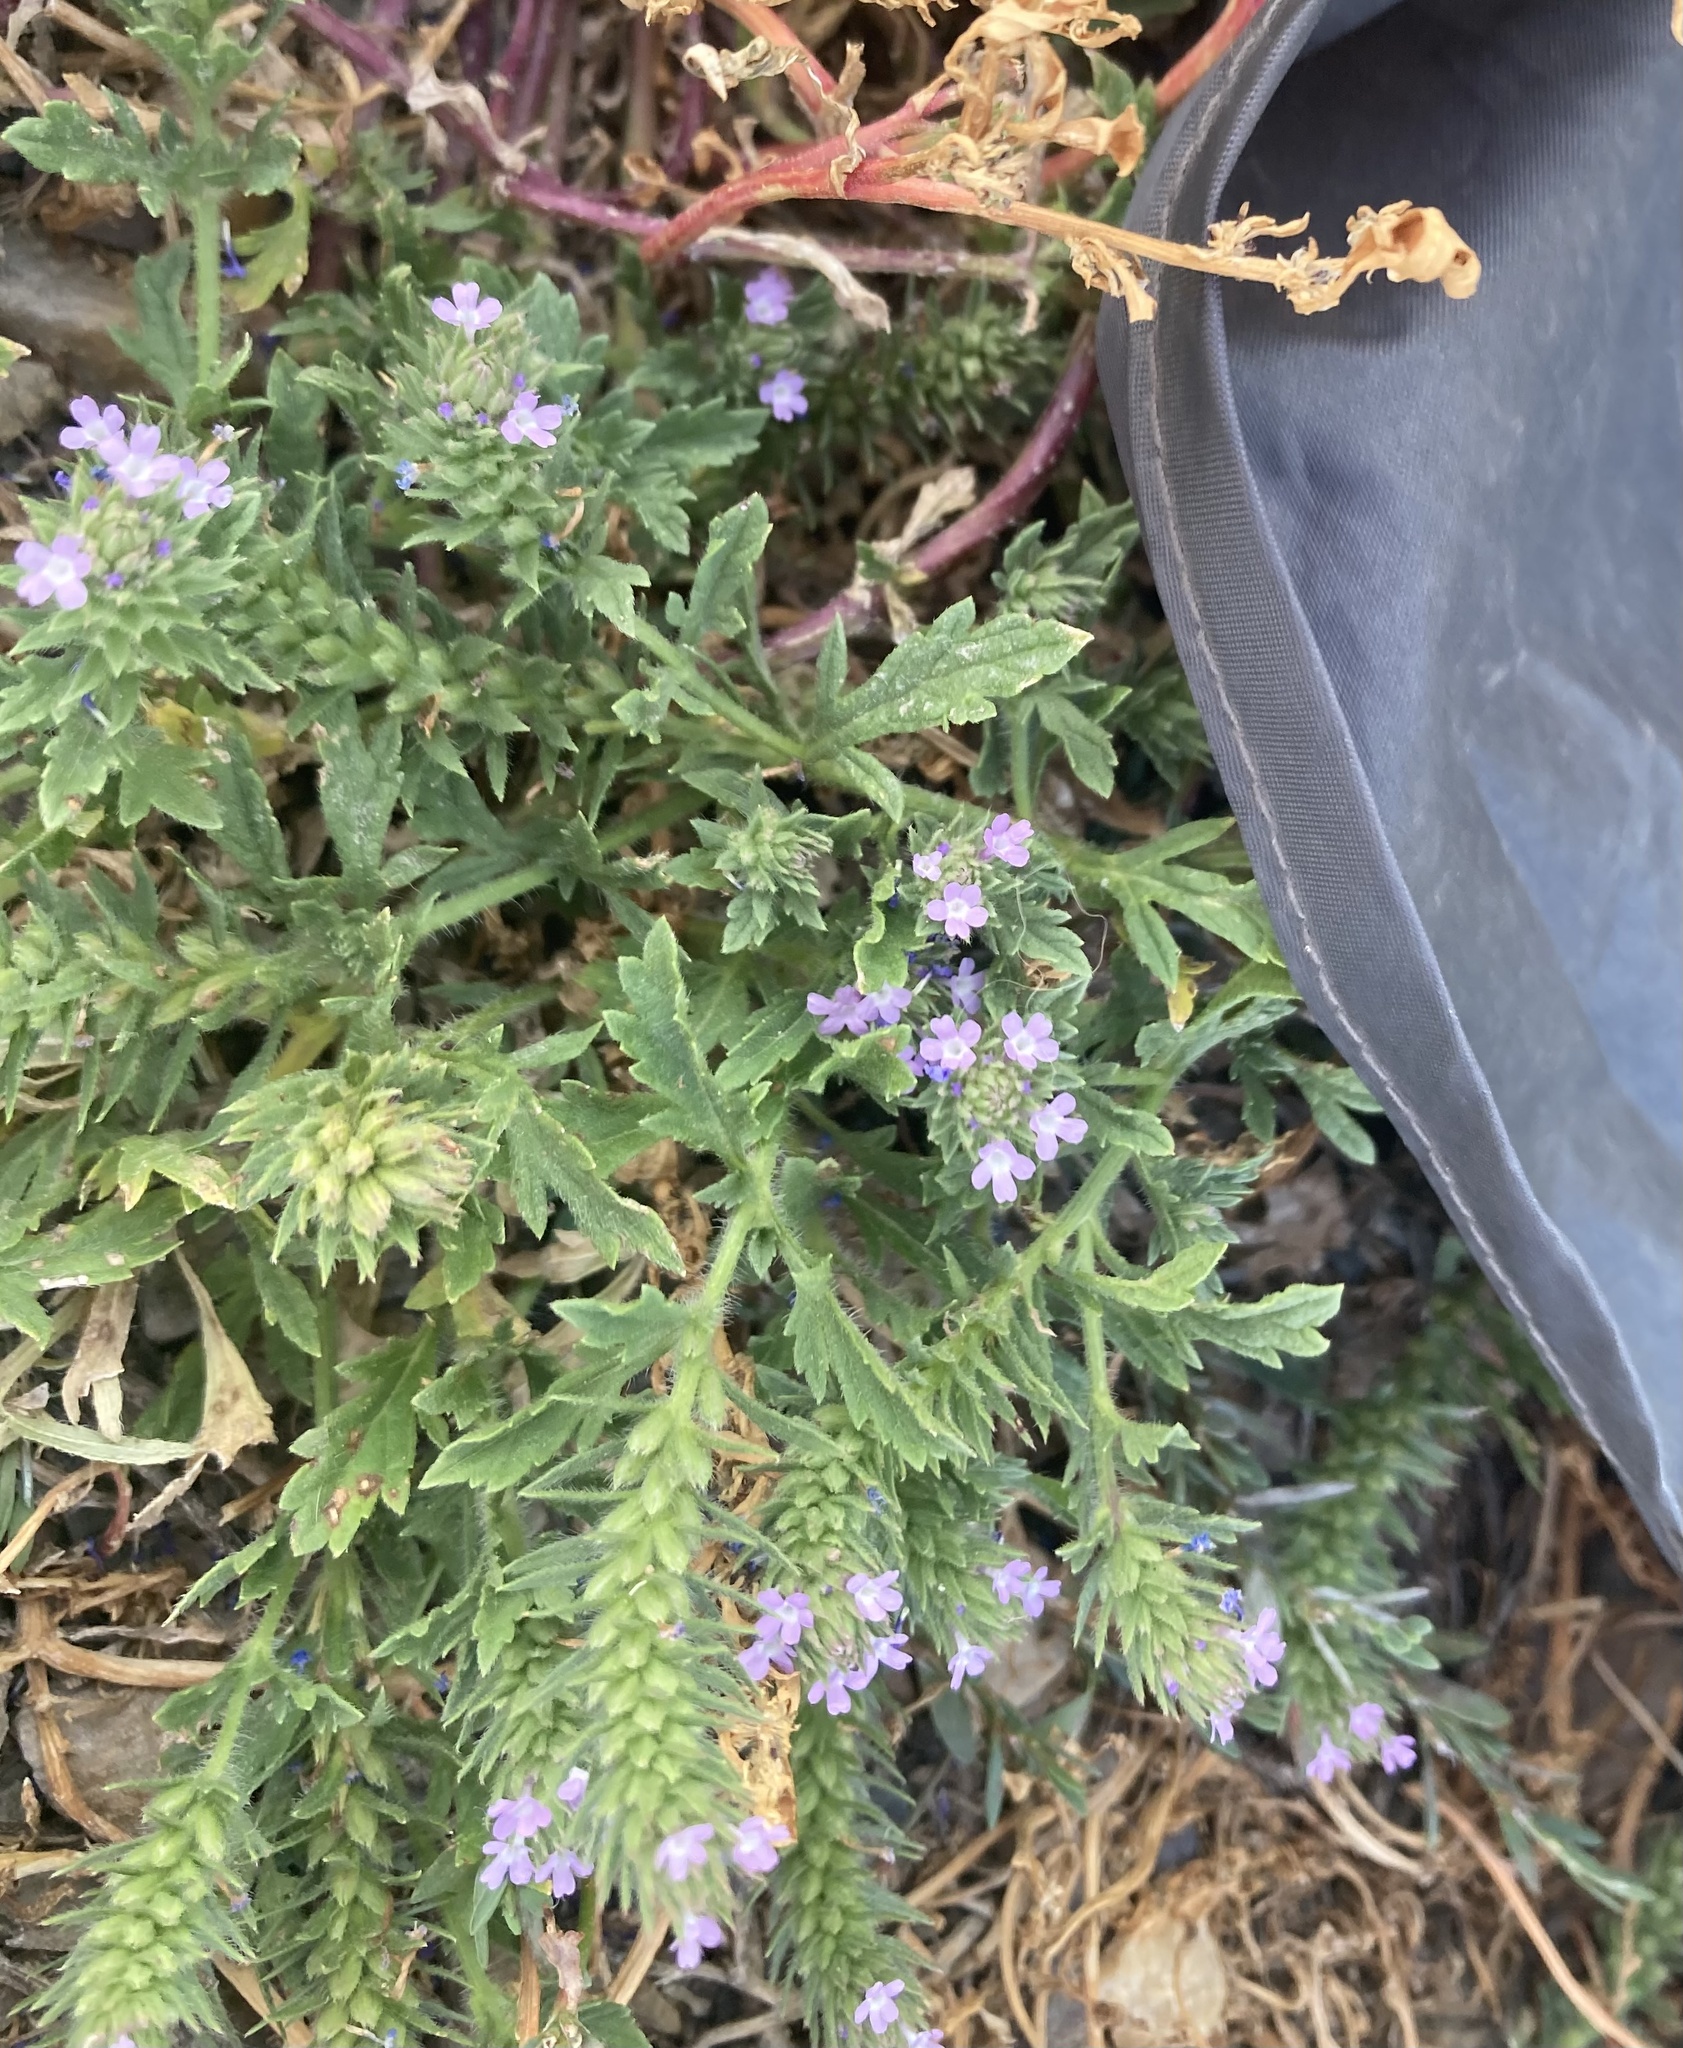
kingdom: Plantae
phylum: Tracheophyta
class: Magnoliopsida
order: Lamiales
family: Verbenaceae
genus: Verbena
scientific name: Verbena bracteata
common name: Bracted vervain
